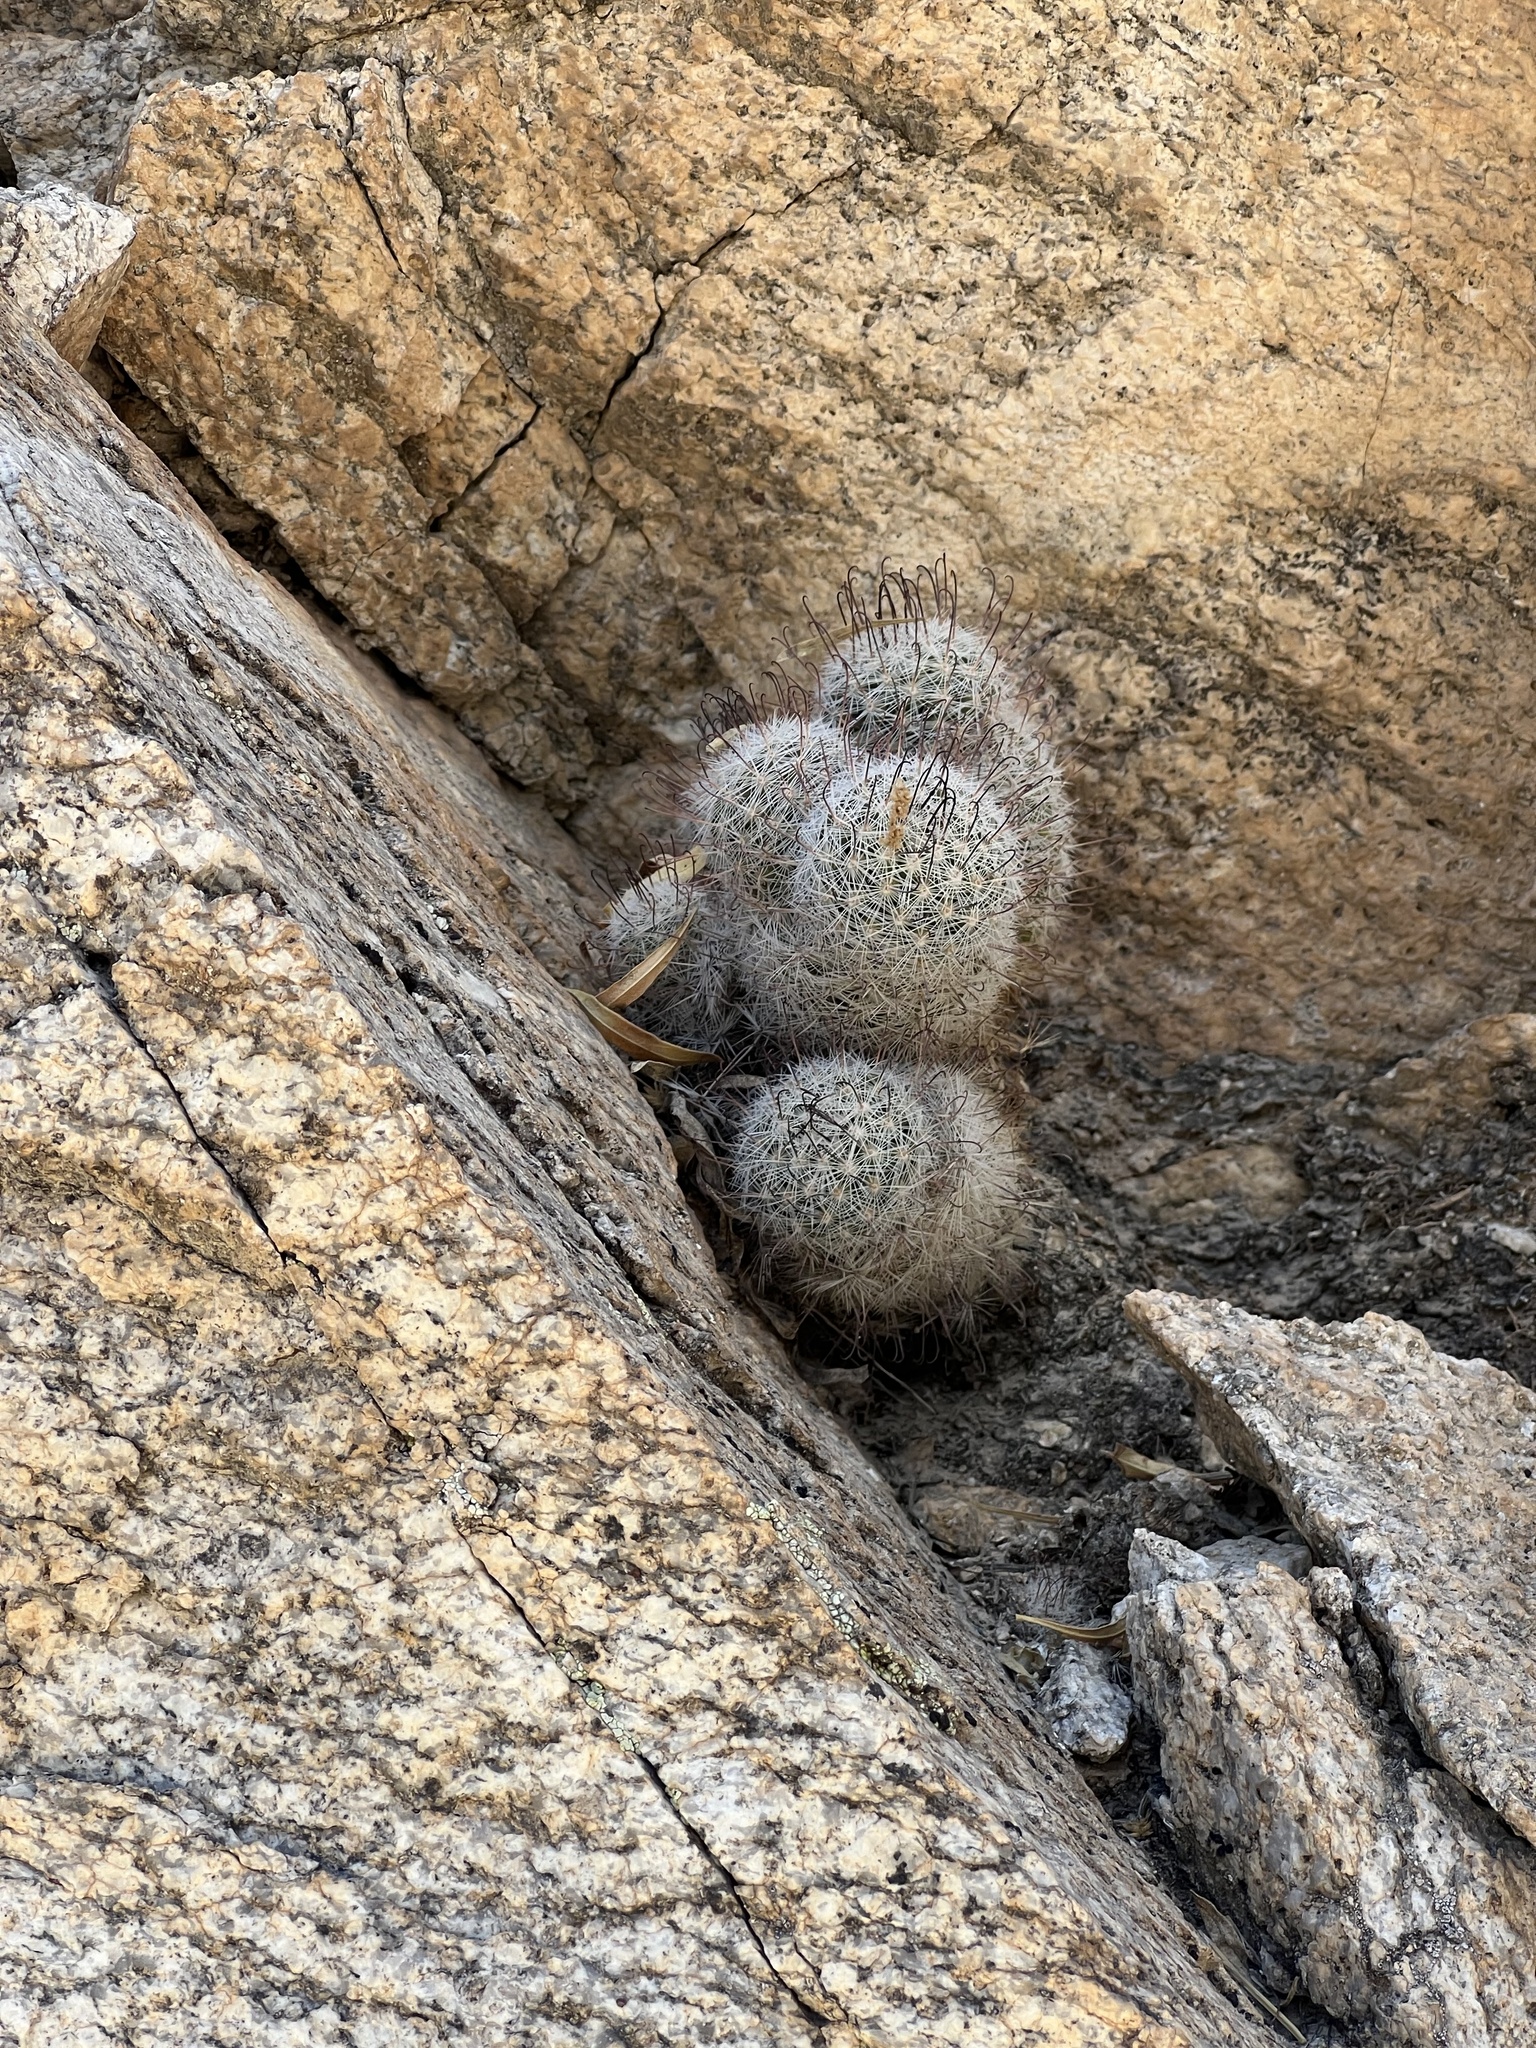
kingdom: Plantae
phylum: Tracheophyta
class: Magnoliopsida
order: Caryophyllales
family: Cactaceae
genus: Cochemiea
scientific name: Cochemiea grahamii
